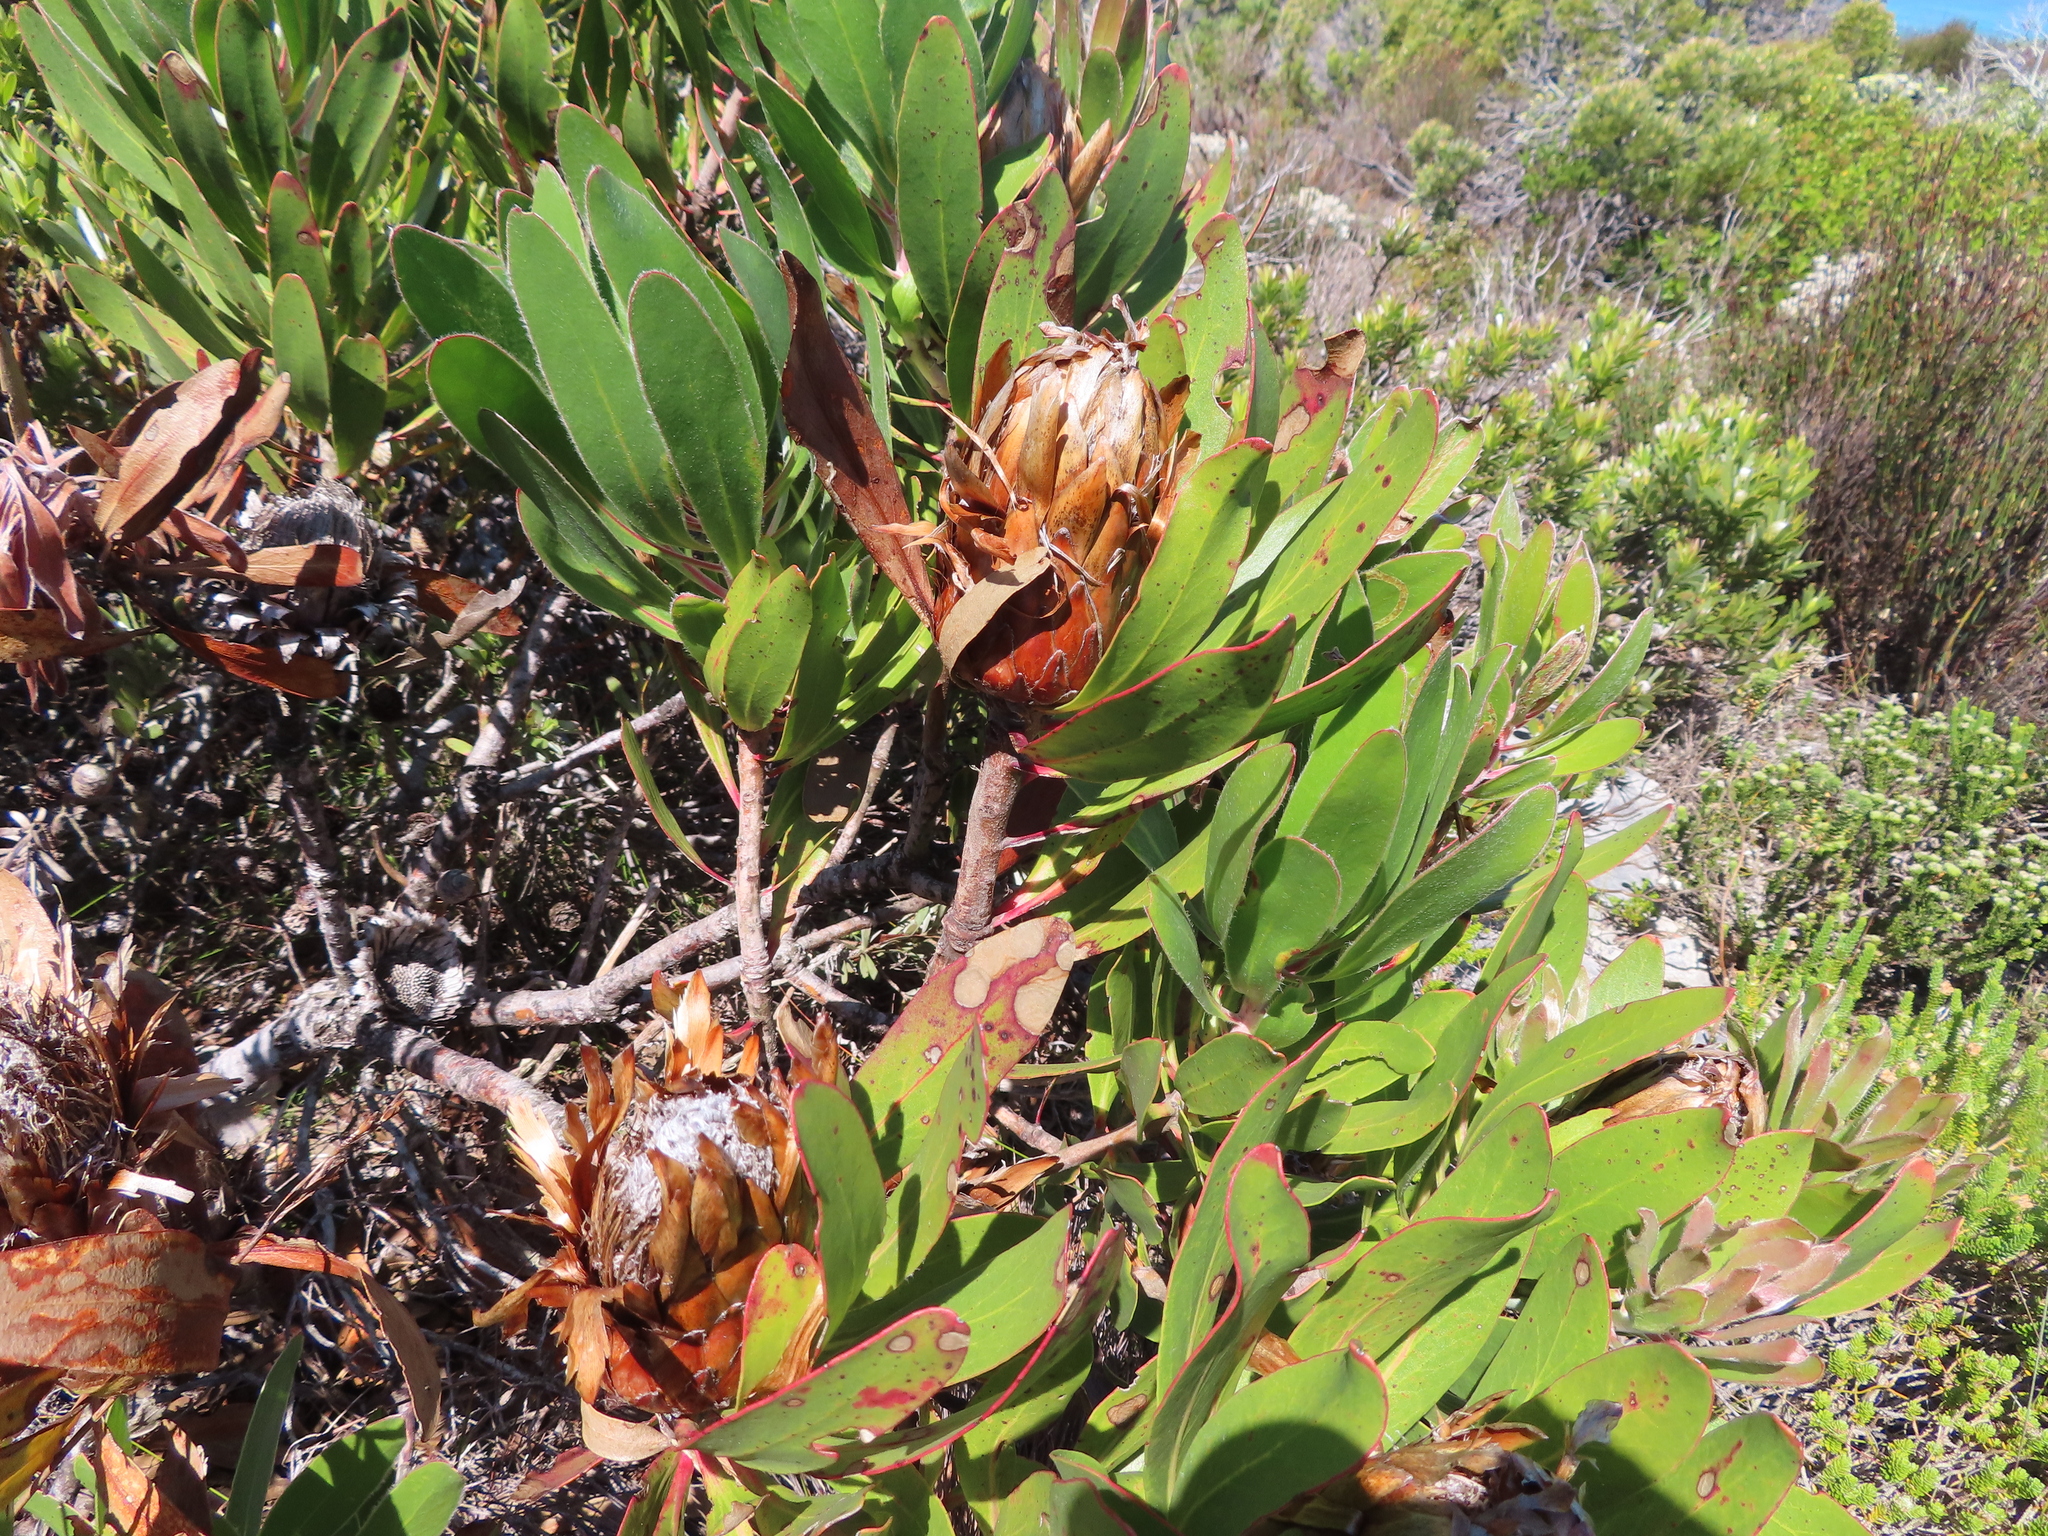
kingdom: Plantae
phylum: Tracheophyta
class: Magnoliopsida
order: Proteales
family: Proteaceae
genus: Protea
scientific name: Protea obtusifolia
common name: Bredasdorp sugarbush
